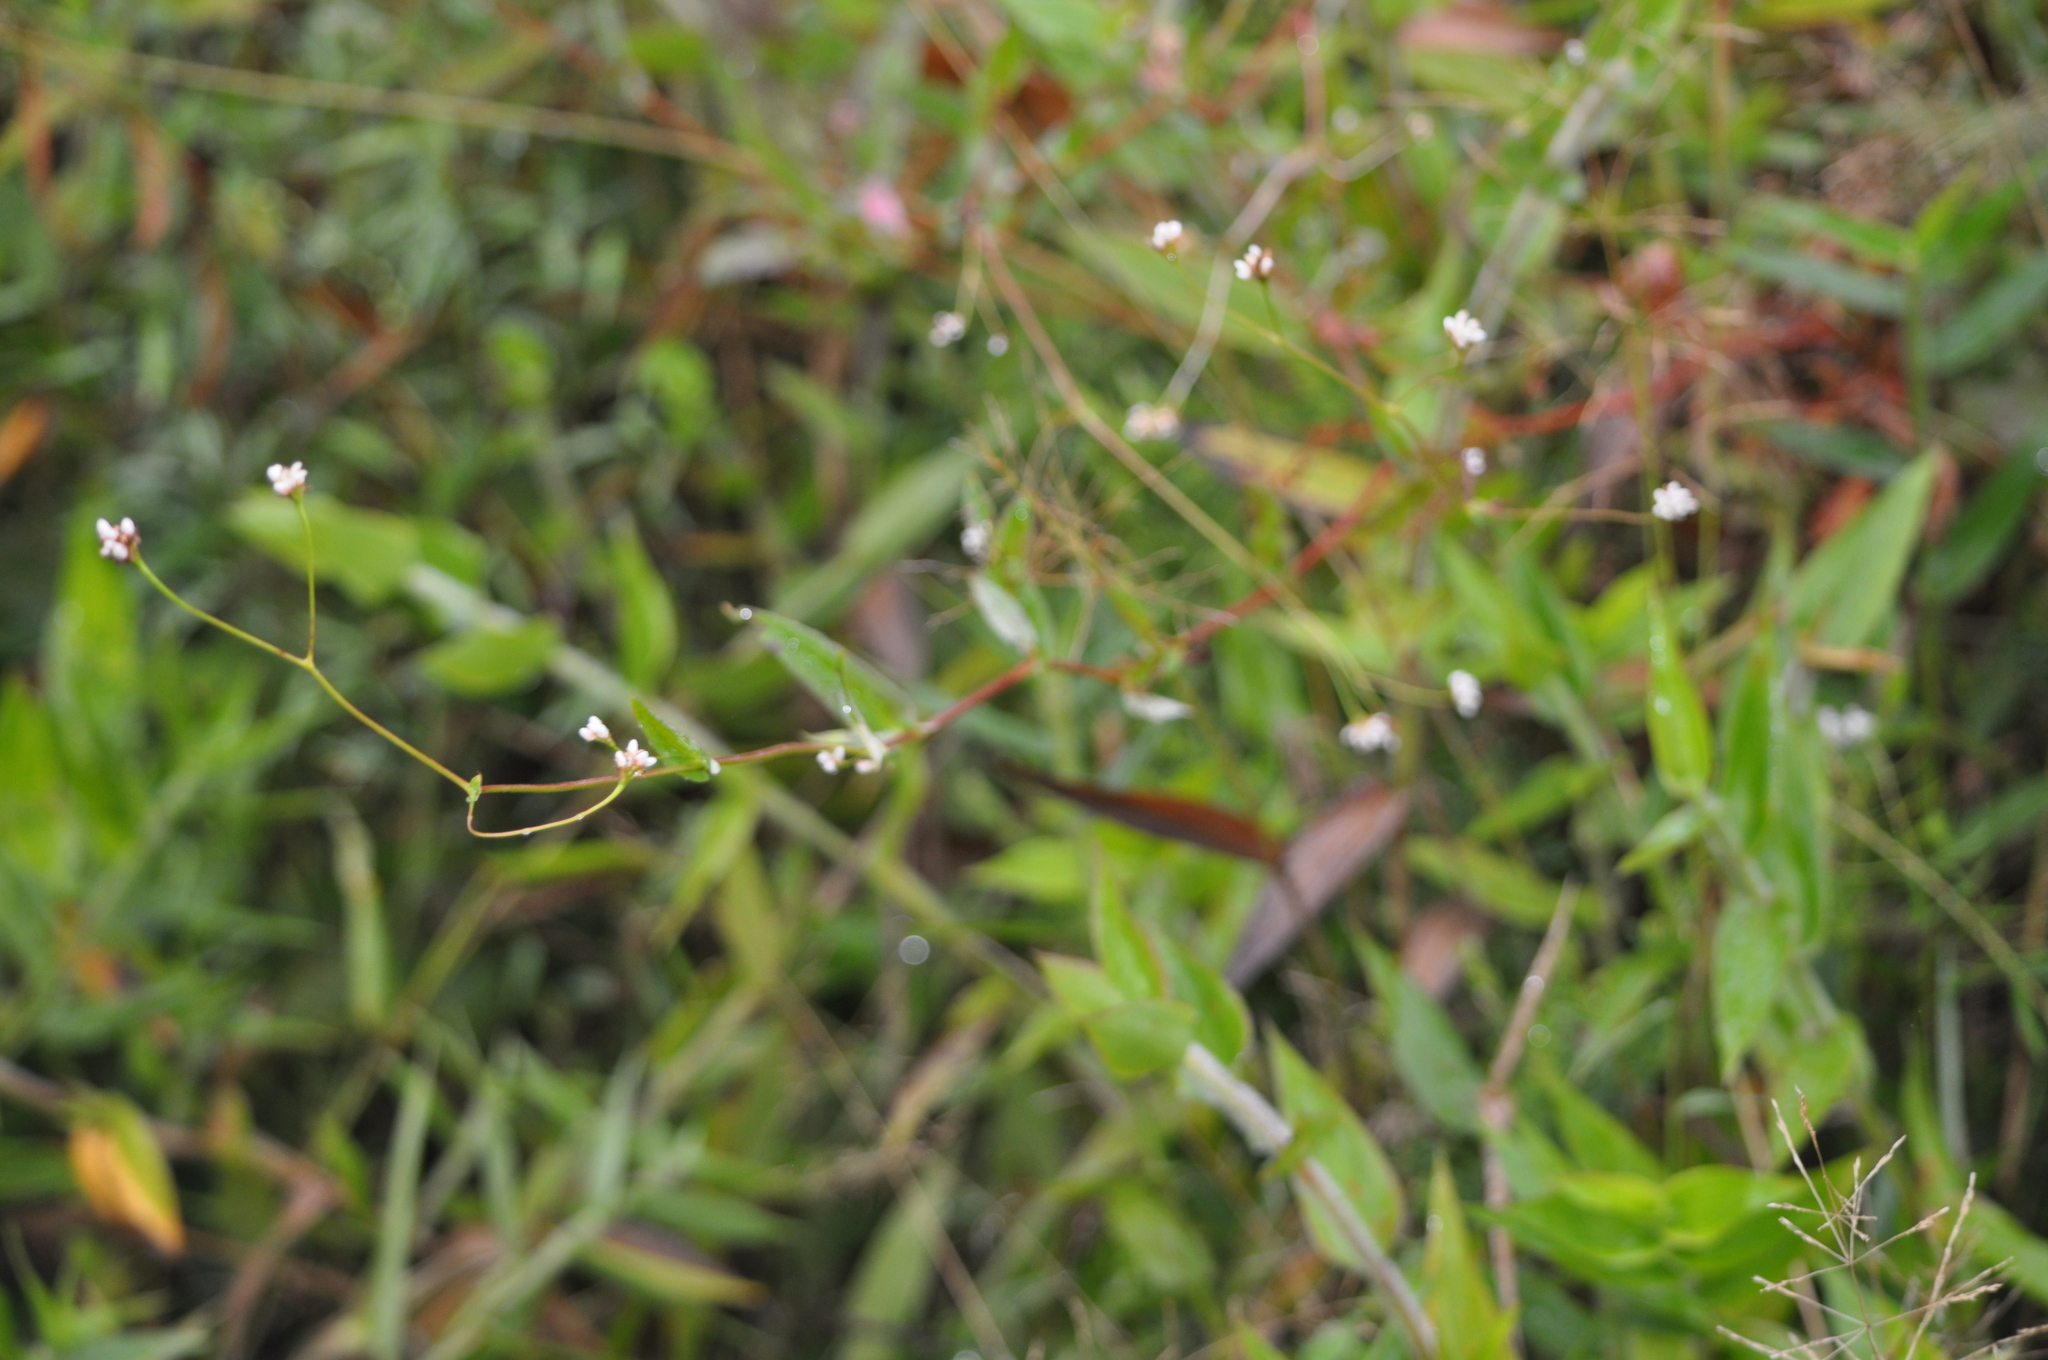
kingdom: Plantae
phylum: Tracheophyta
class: Magnoliopsida
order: Caryophyllales
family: Polygonaceae
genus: Persicaria
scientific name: Persicaria sagittata
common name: American tearthumb
